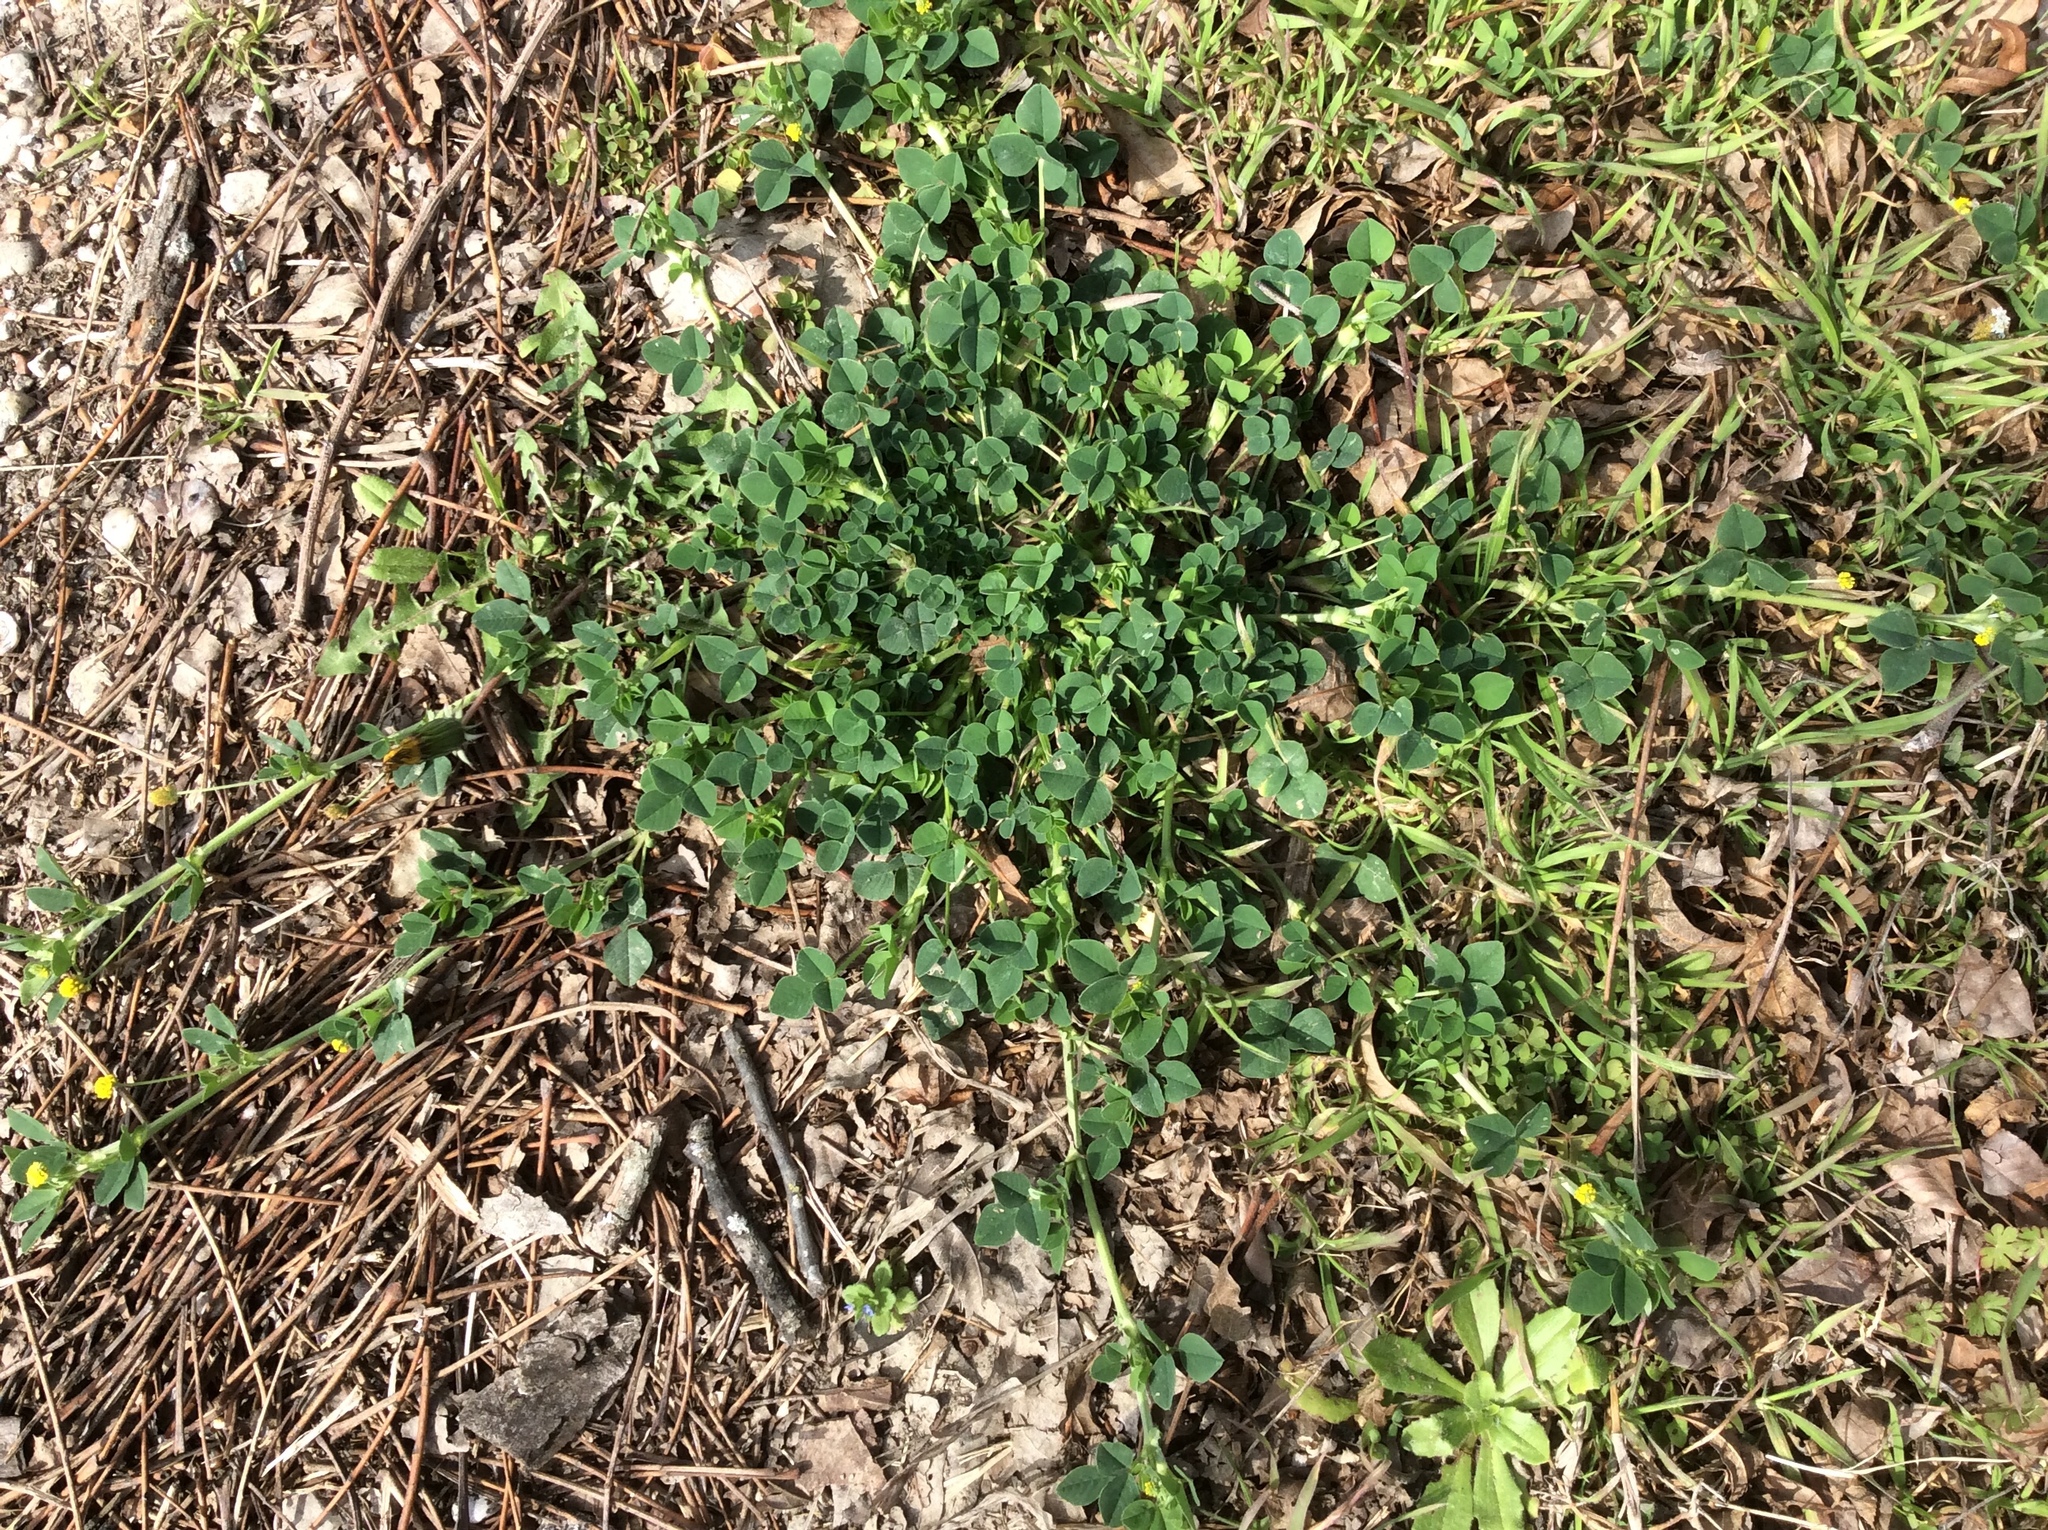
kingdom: Plantae
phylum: Tracheophyta
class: Magnoliopsida
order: Fabales
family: Fabaceae
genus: Medicago
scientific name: Medicago lupulina
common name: Black medick
